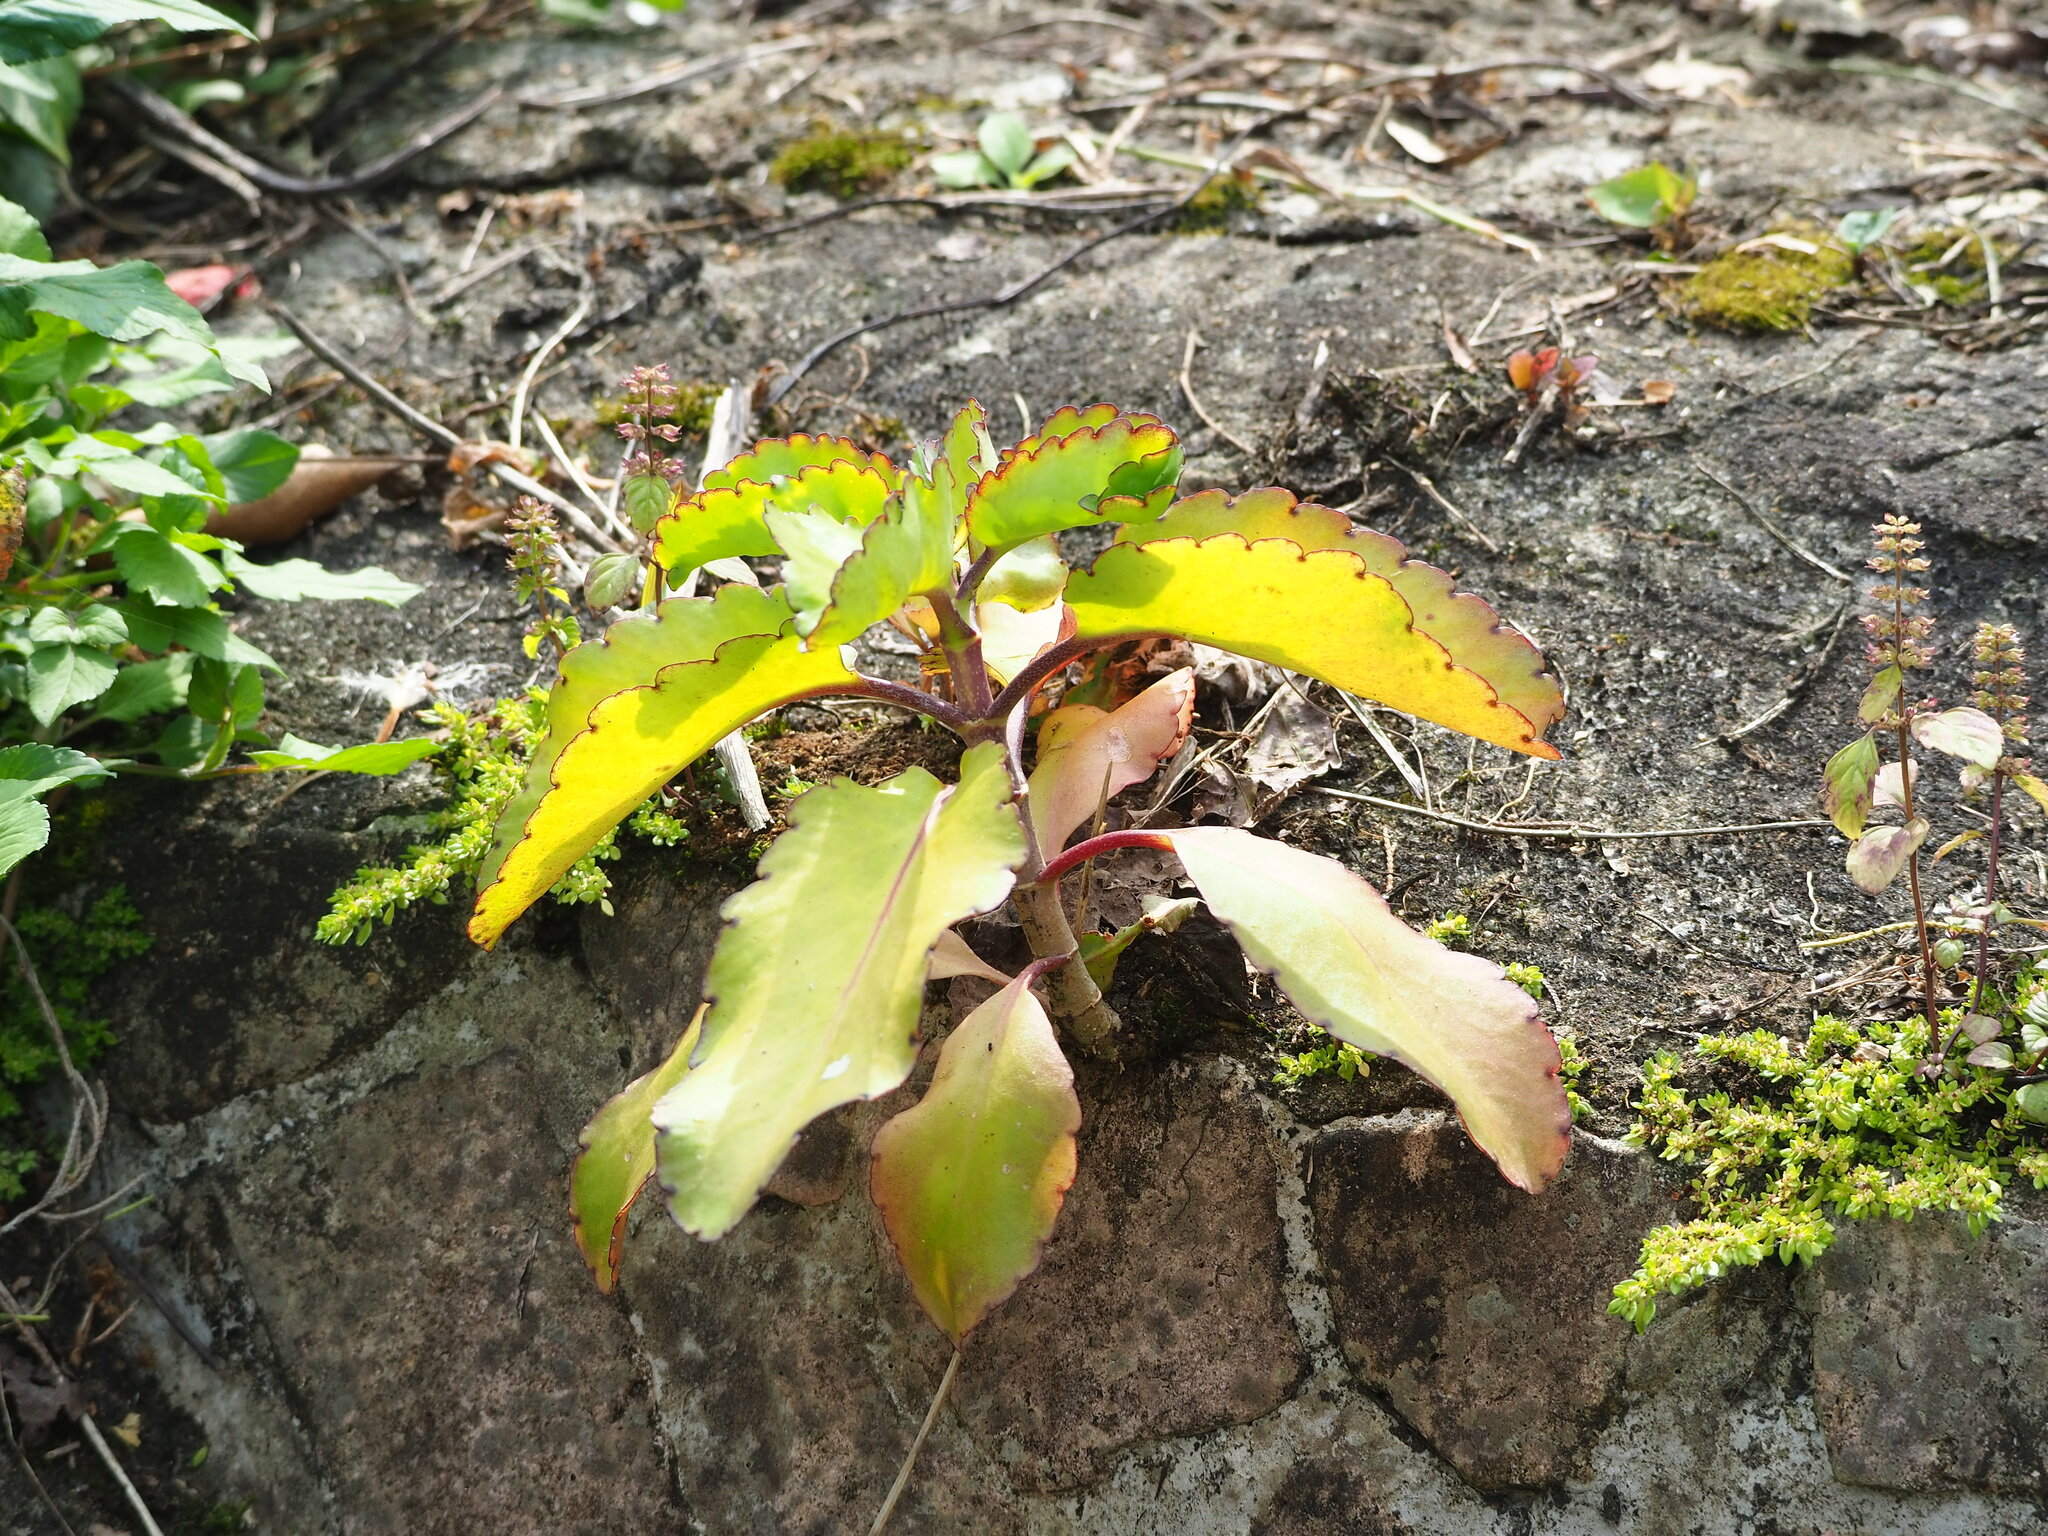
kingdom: Plantae
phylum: Tracheophyta
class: Magnoliopsida
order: Saxifragales
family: Crassulaceae
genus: Kalanchoe
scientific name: Kalanchoe pinnata
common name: Cathedral bells
